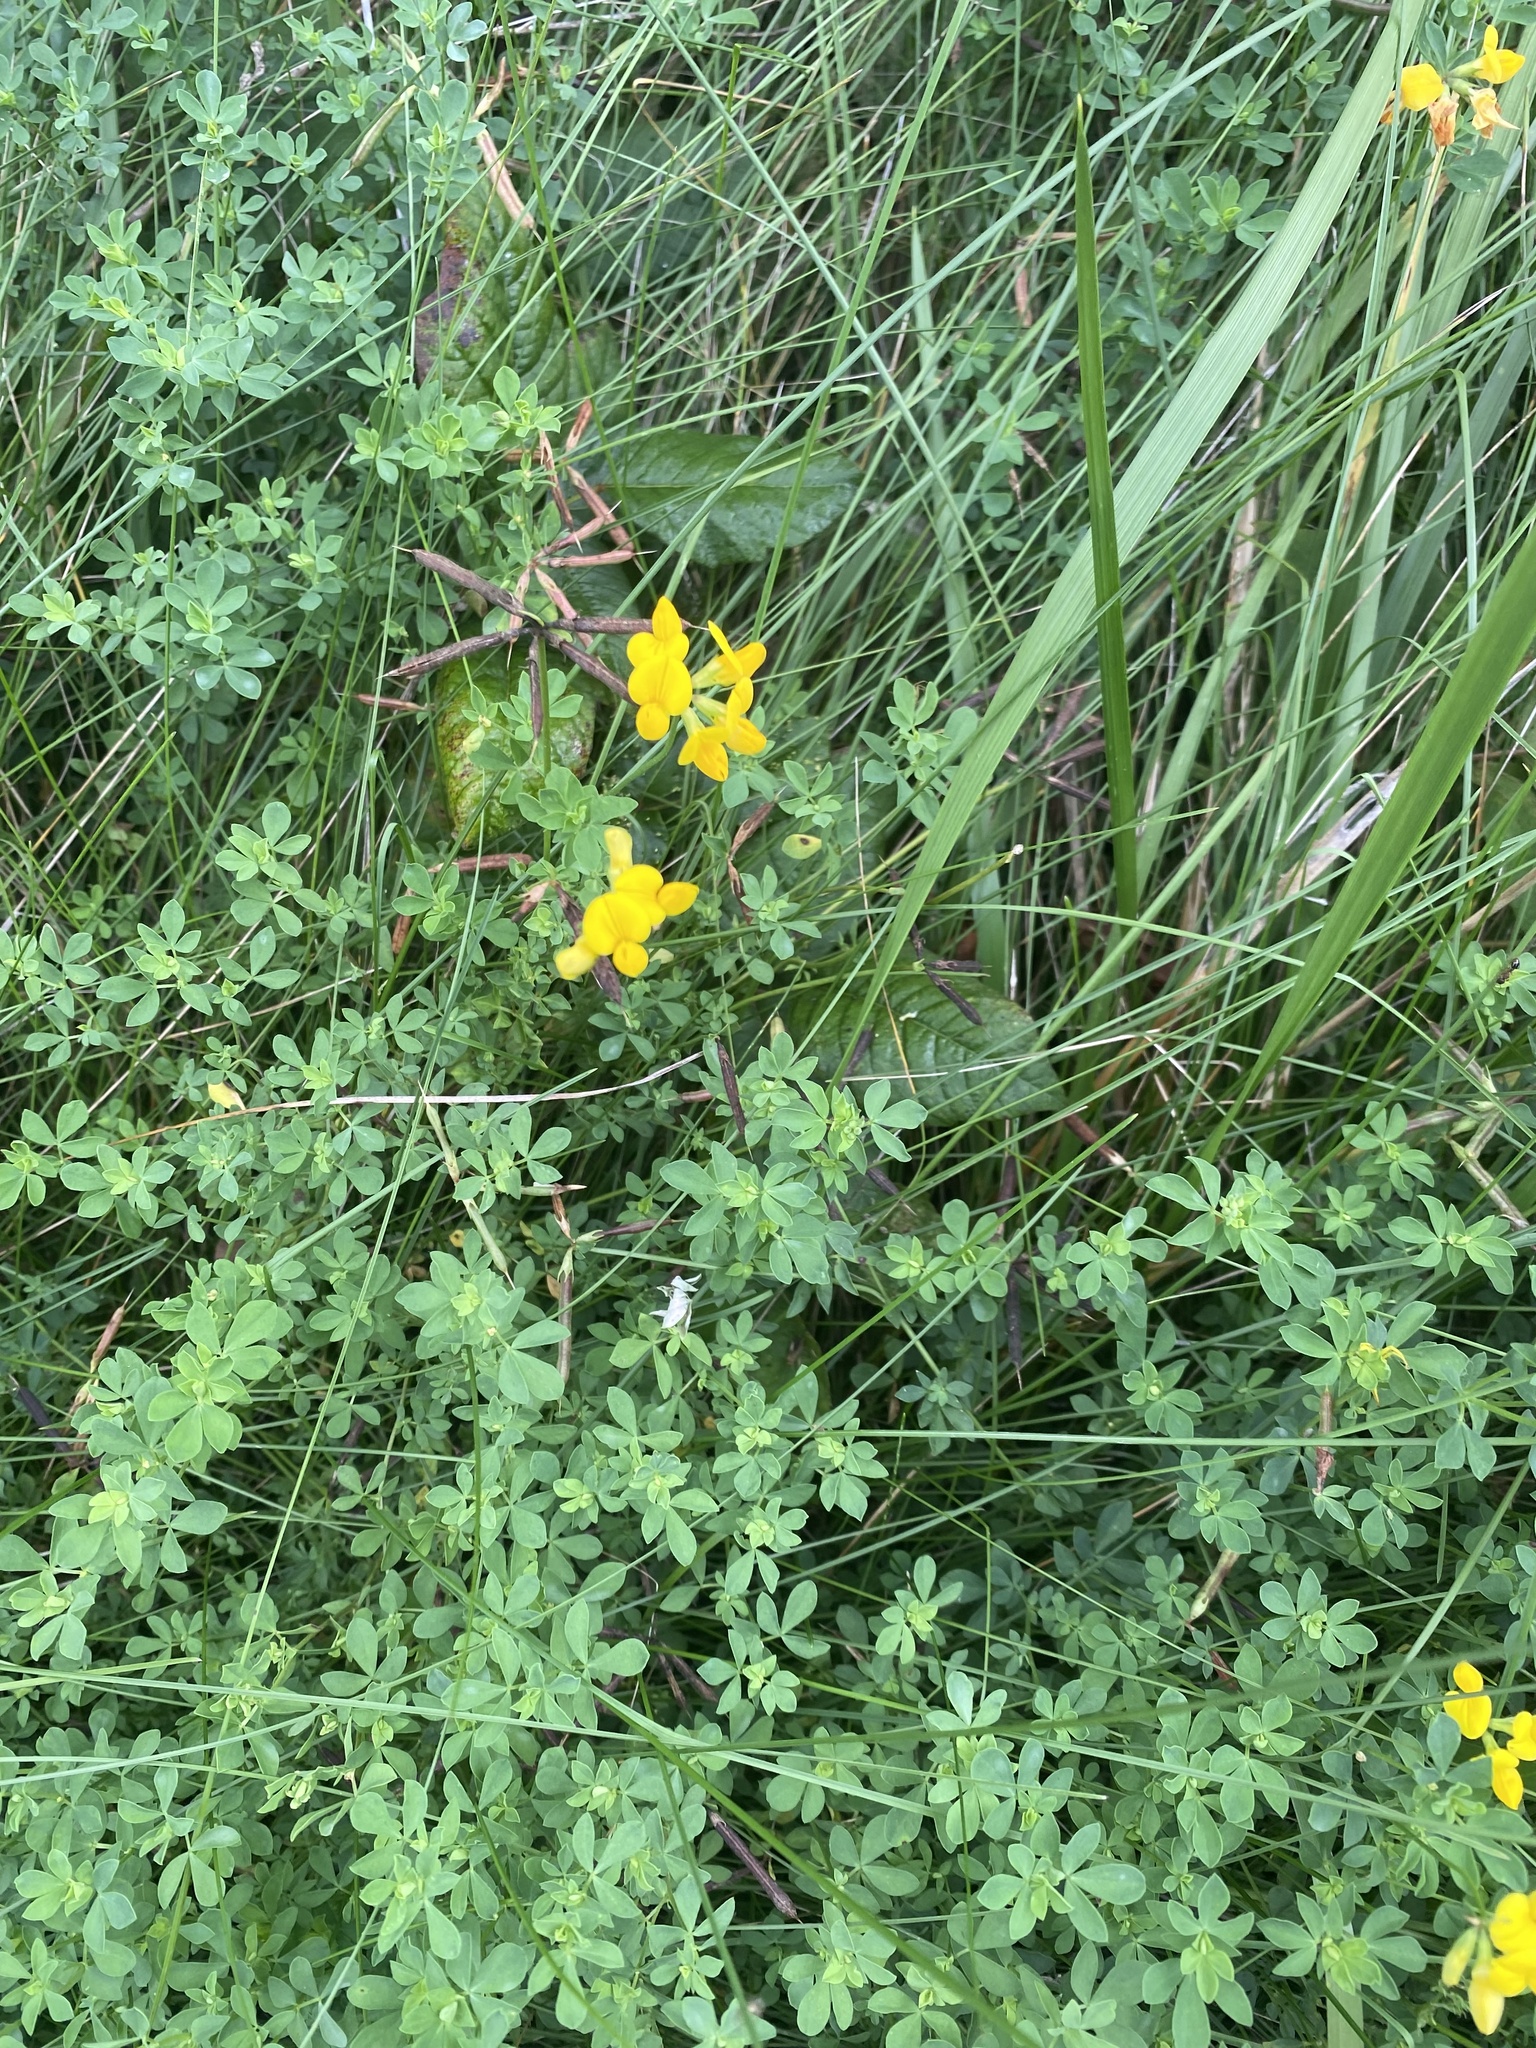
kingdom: Plantae
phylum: Tracheophyta
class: Magnoliopsida
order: Fabales
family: Fabaceae
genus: Lotus
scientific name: Lotus corniculatus
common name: Common bird's-foot-trefoil
